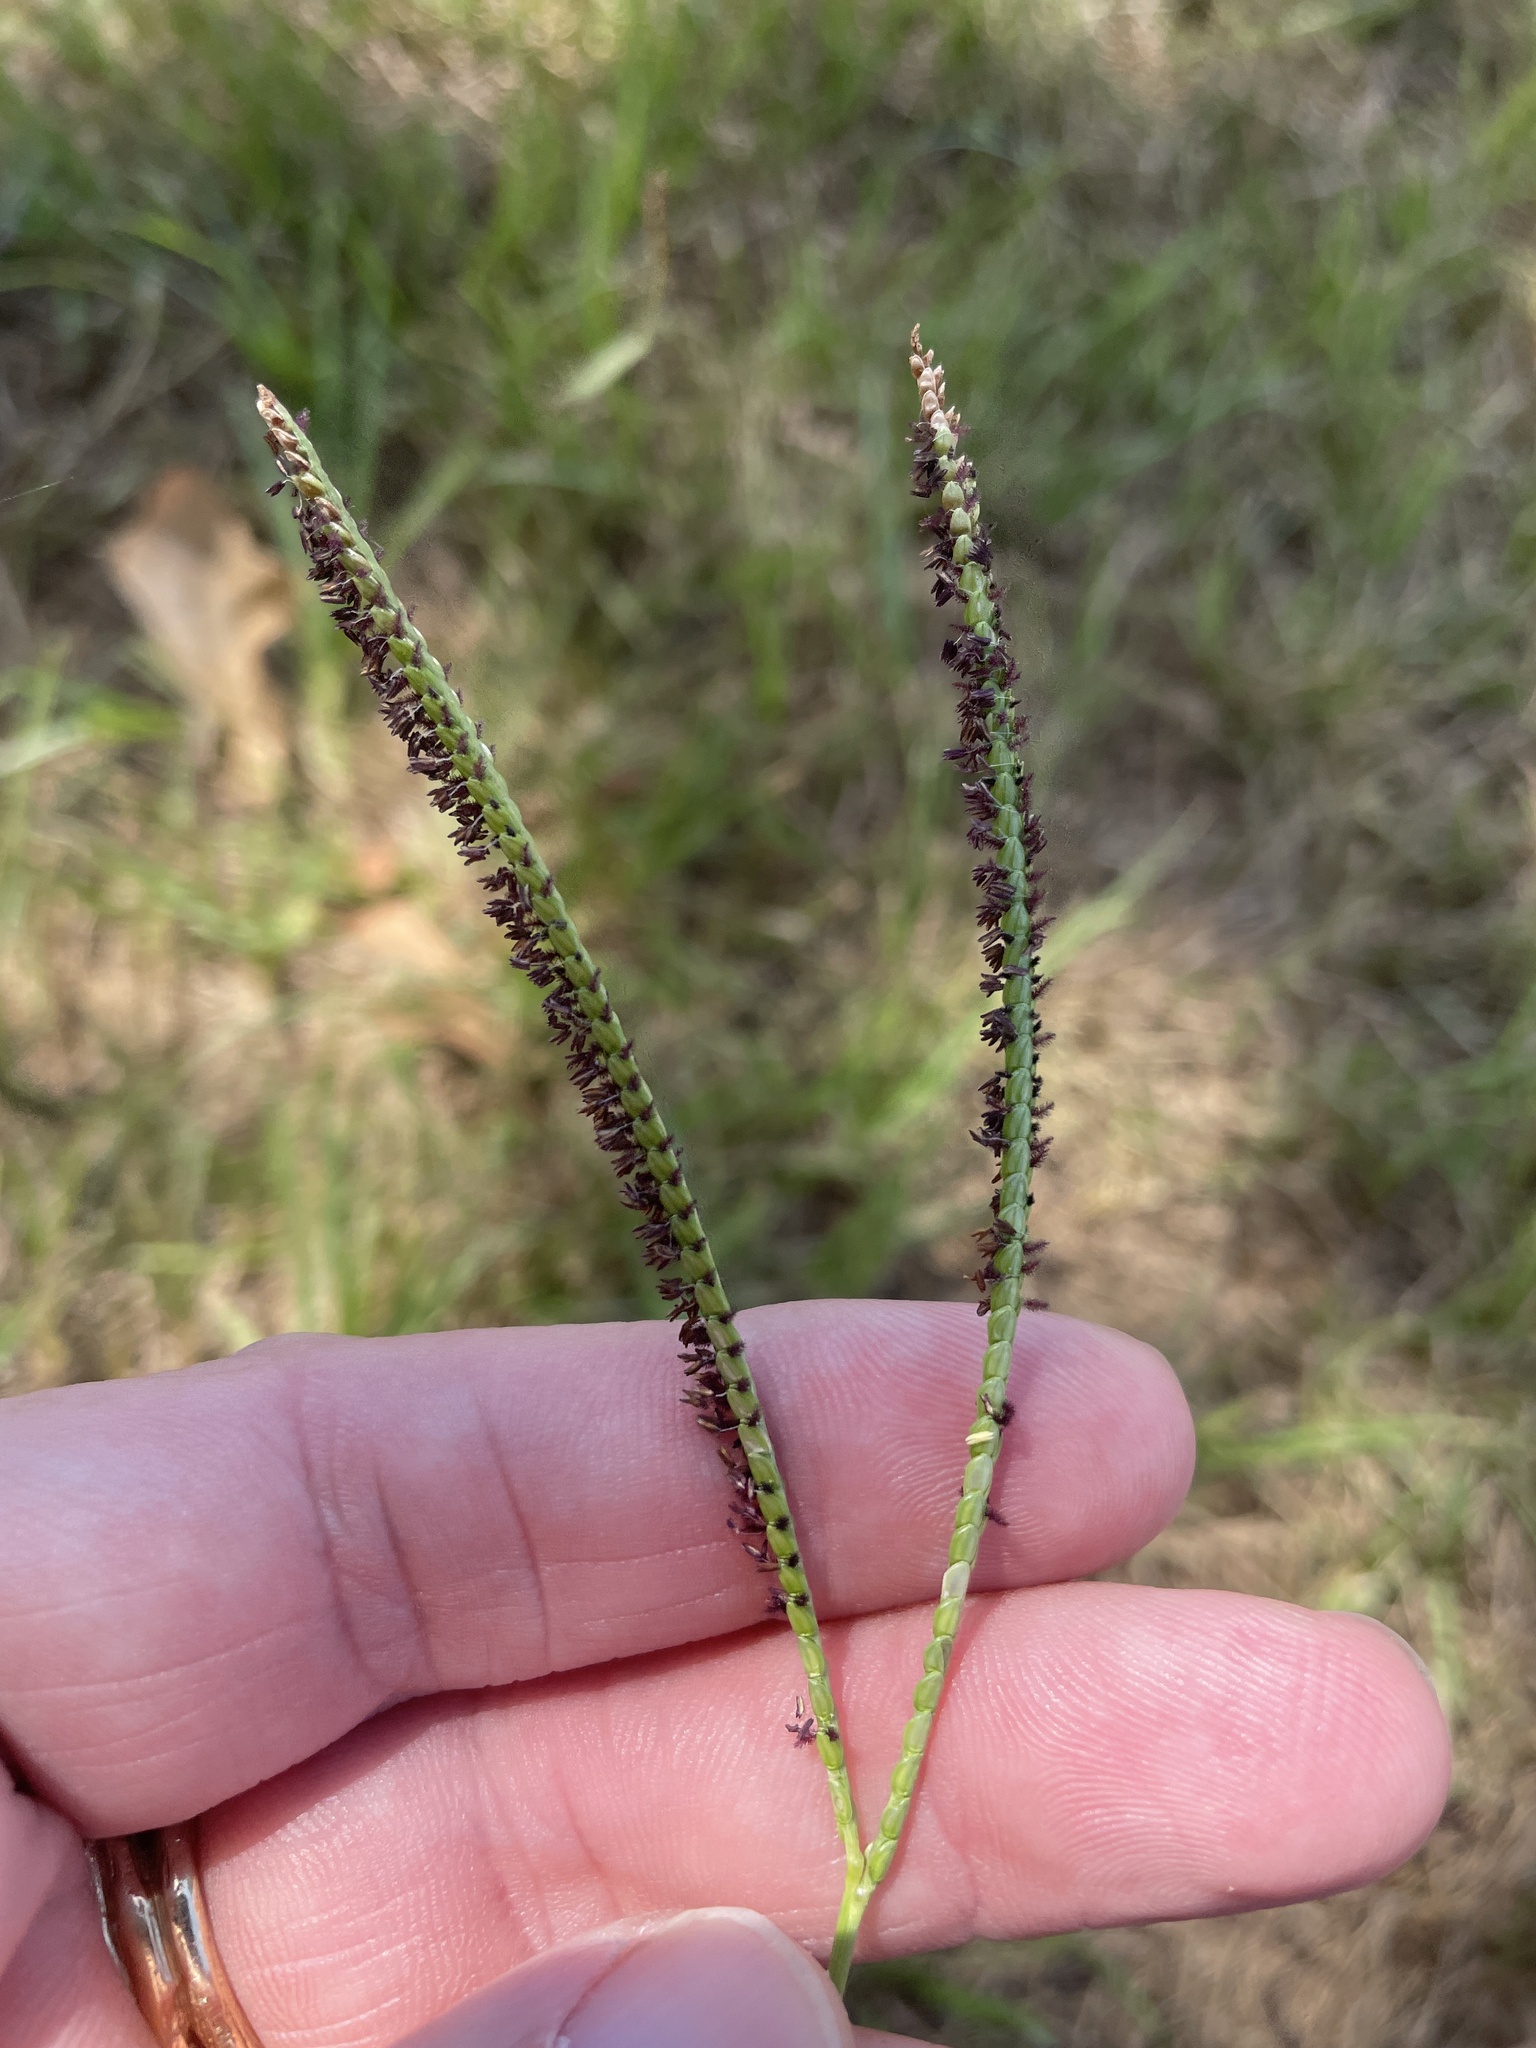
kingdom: Plantae
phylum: Tracheophyta
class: Liliopsida
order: Poales
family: Poaceae
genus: Paspalum
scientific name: Paspalum notatum
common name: Bahiagrass
